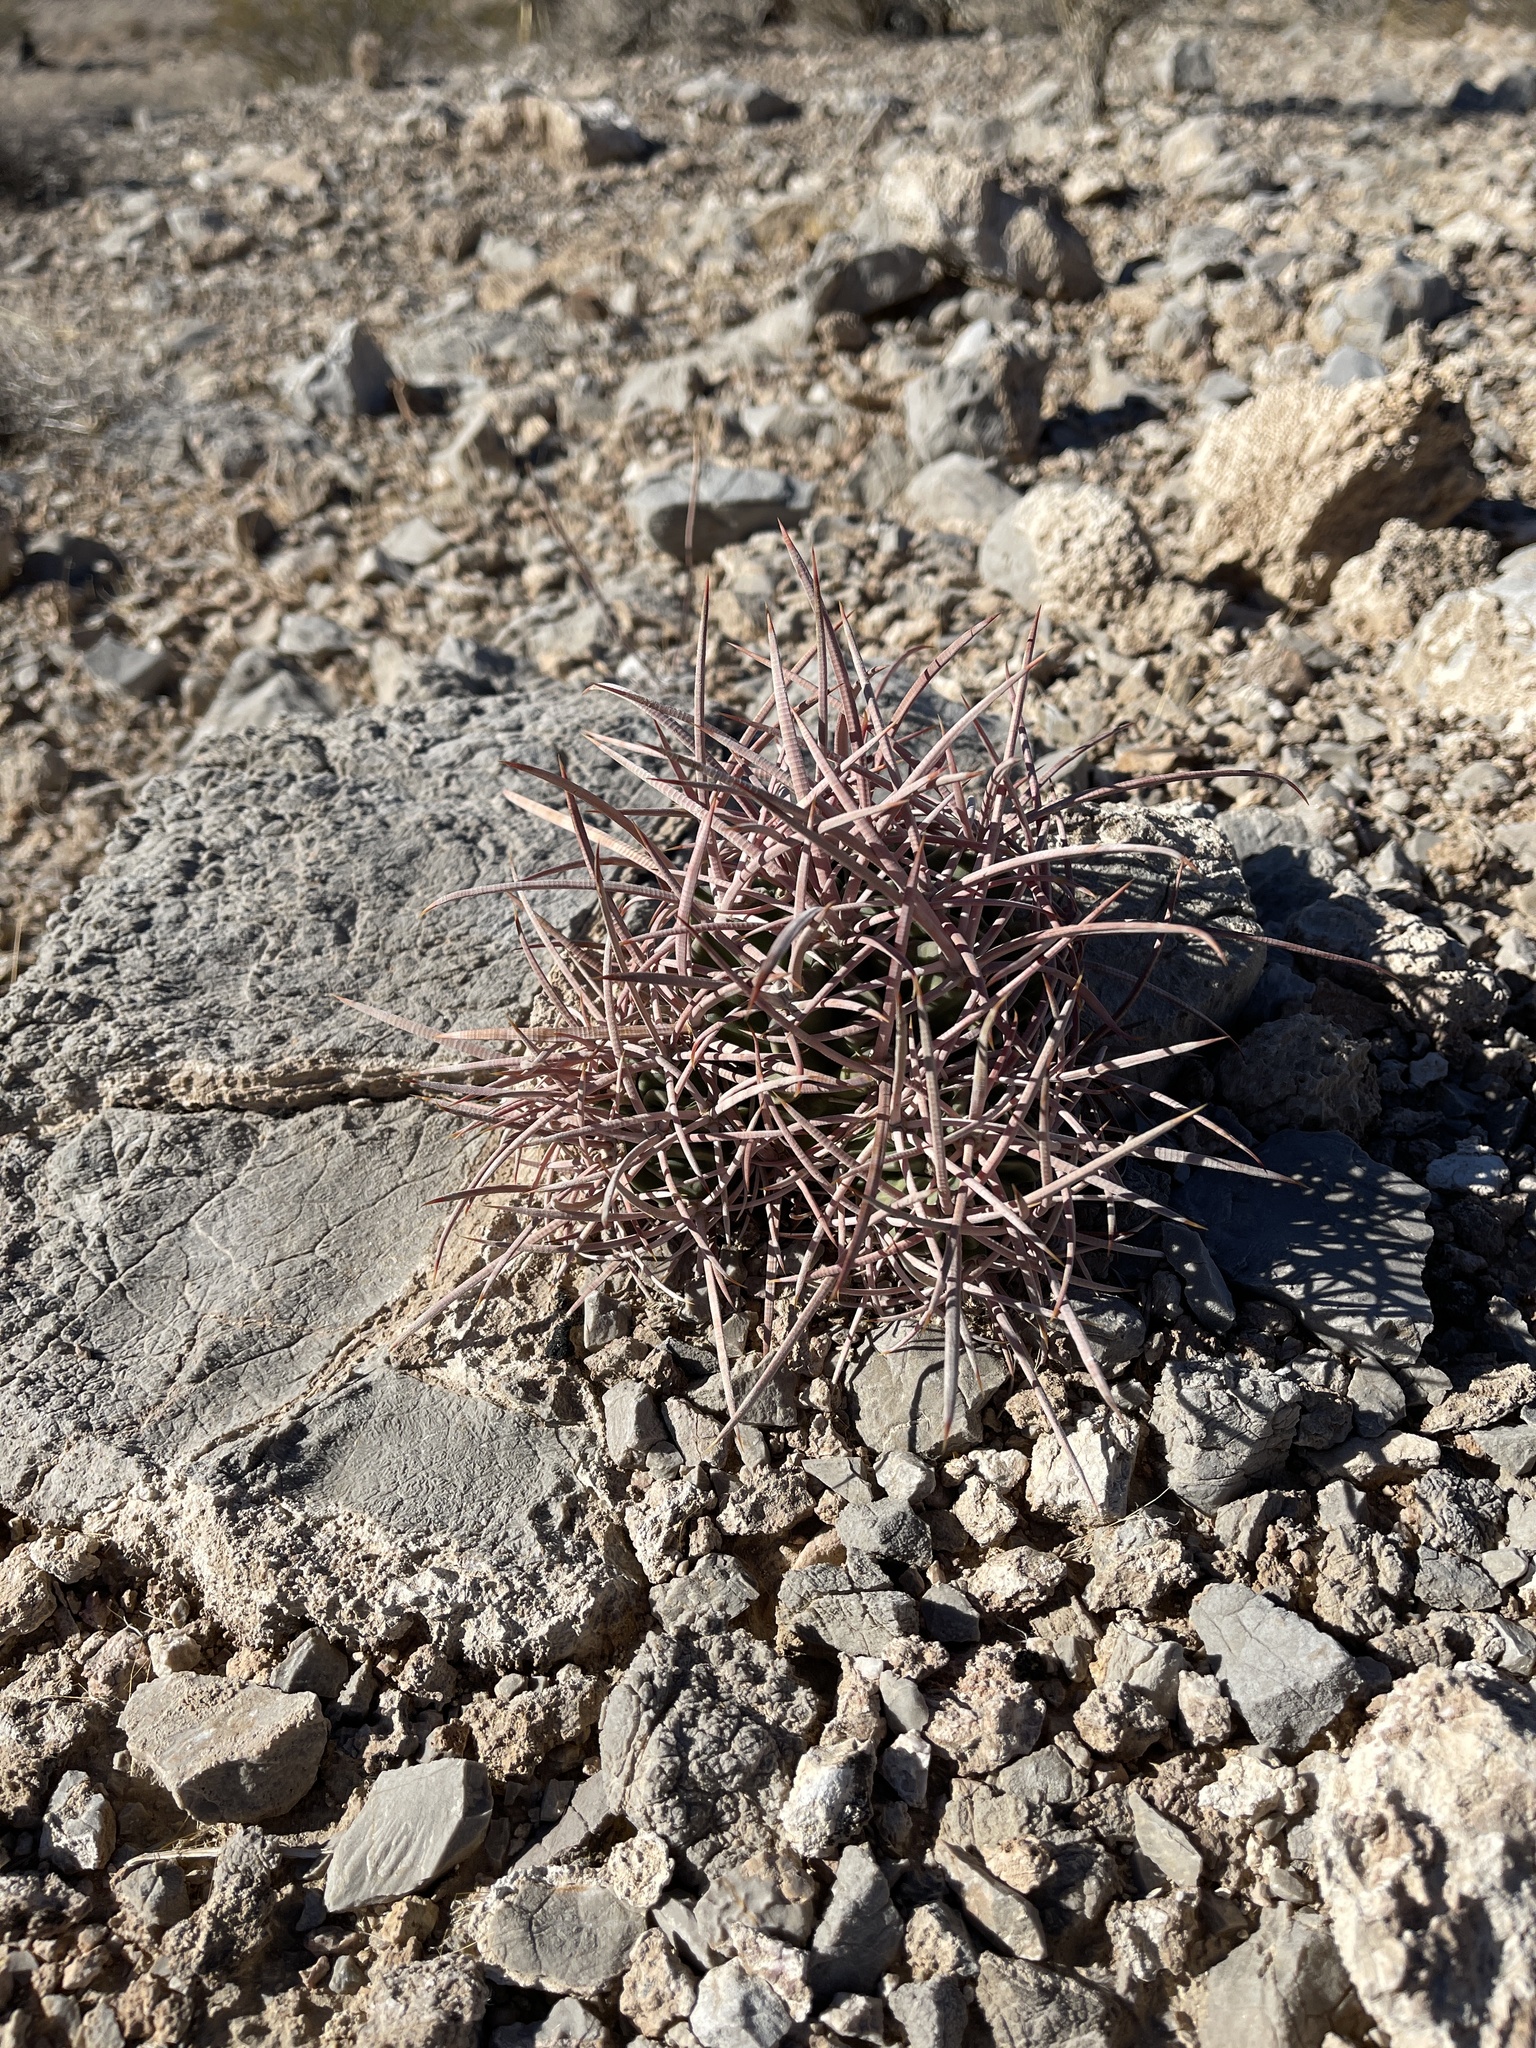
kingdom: Plantae
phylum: Tracheophyta
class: Magnoliopsida
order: Caryophyllales
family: Cactaceae
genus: Echinocactus
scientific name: Echinocactus polycephalus
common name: Cottontop cactus
